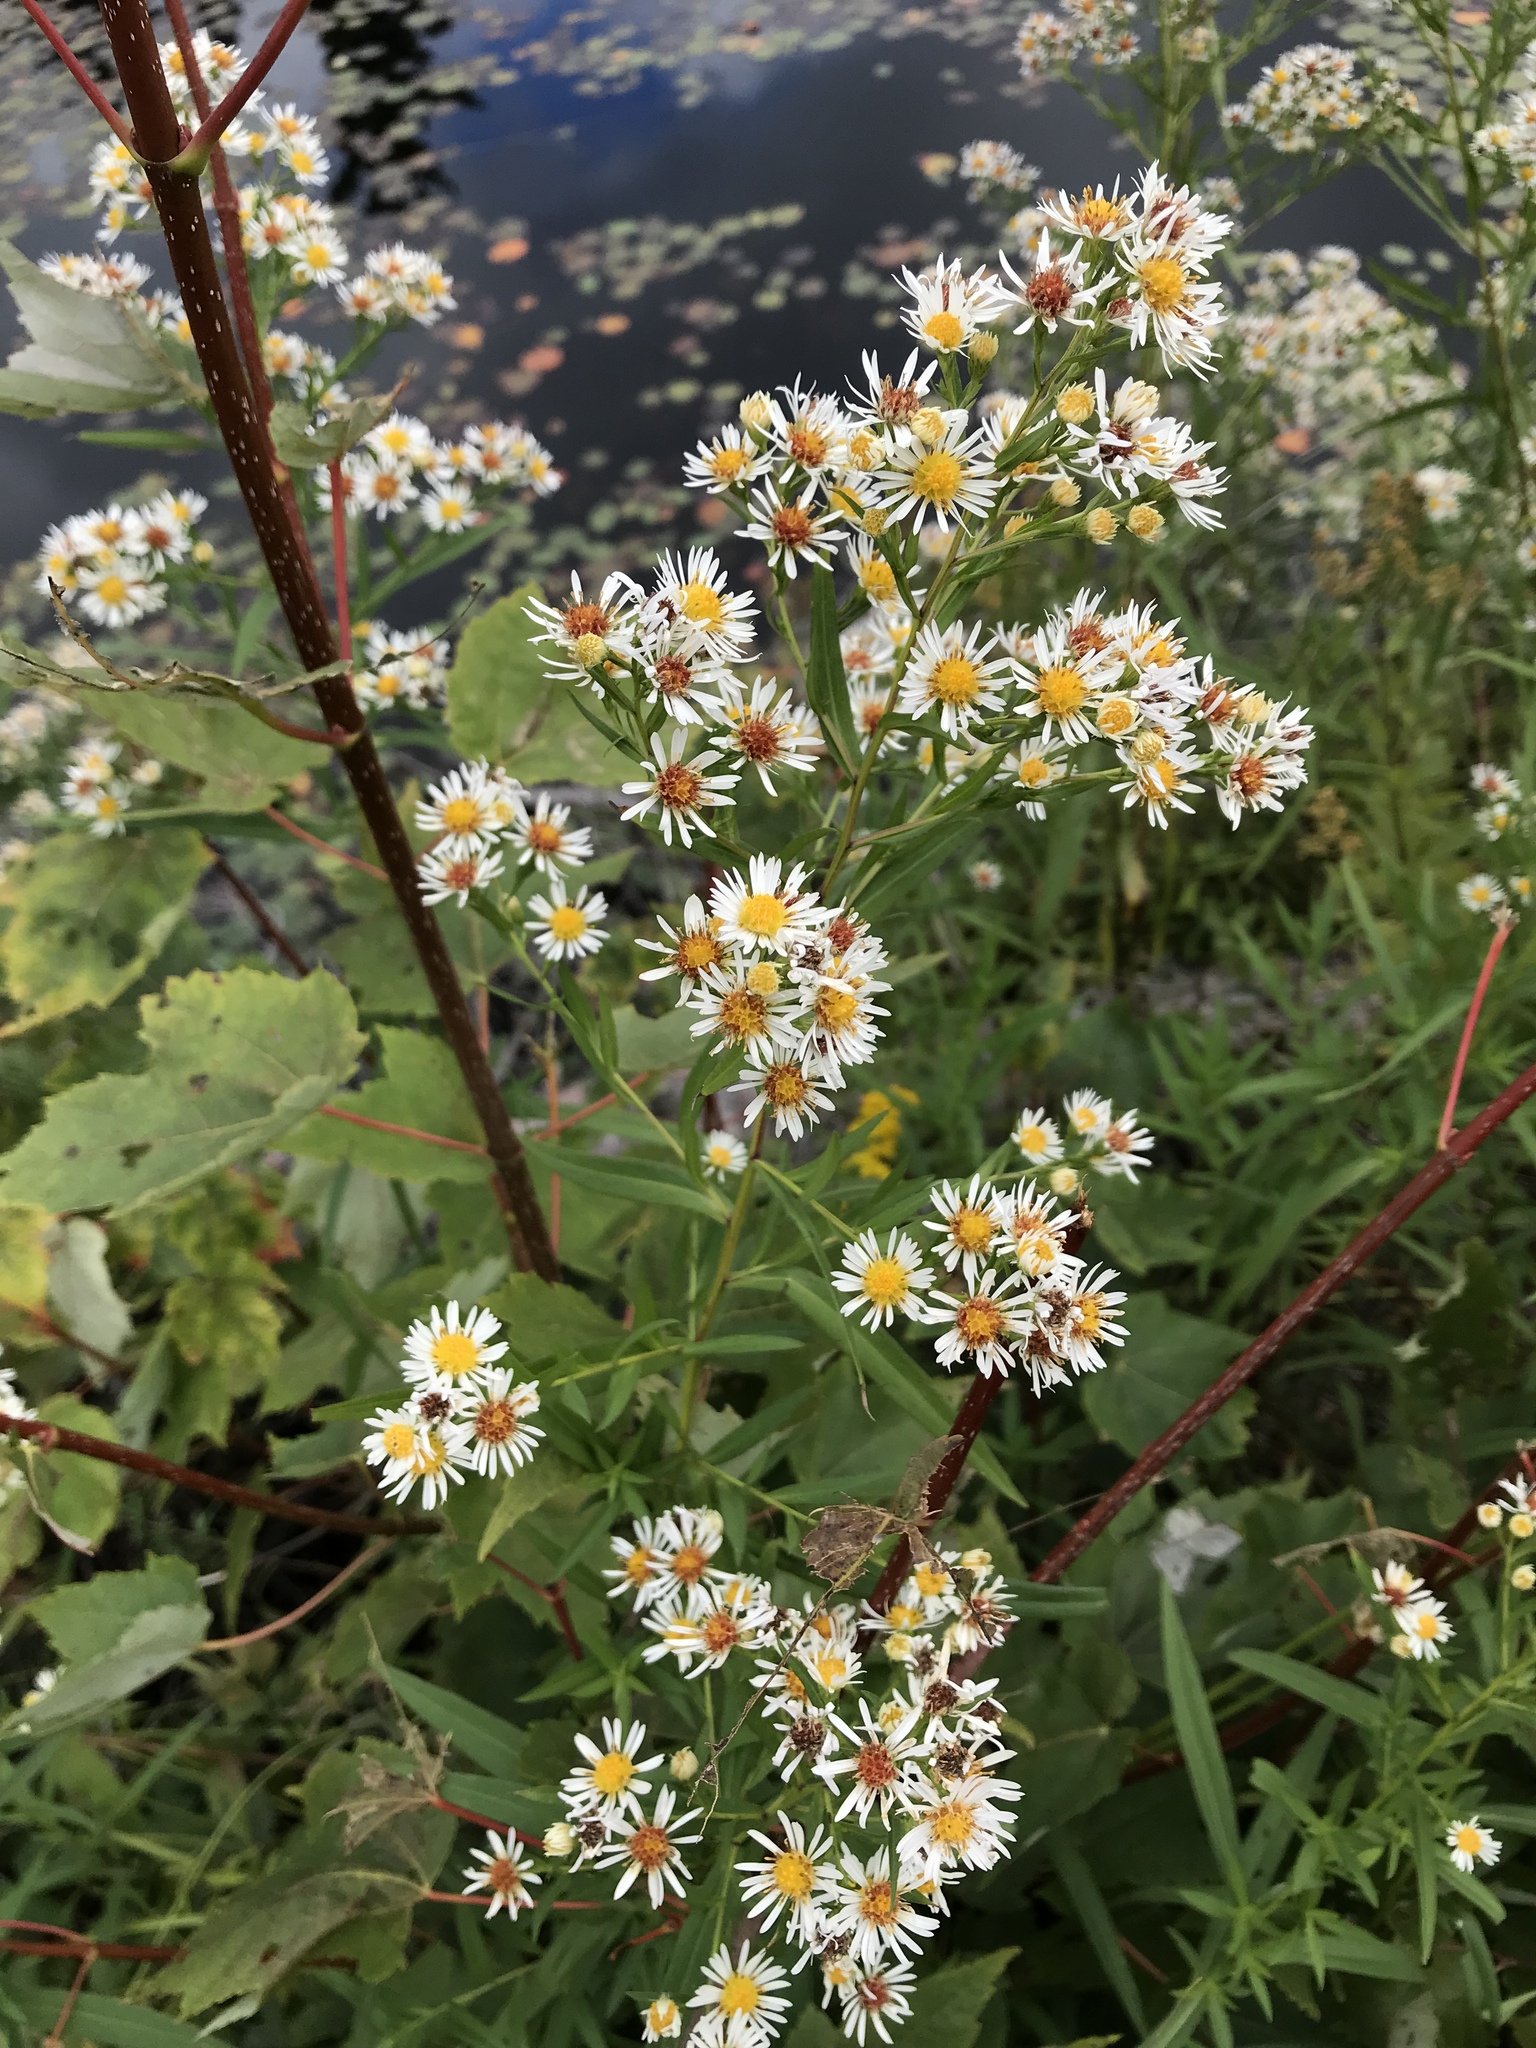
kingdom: Plantae
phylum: Tracheophyta
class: Magnoliopsida
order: Asterales
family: Asteraceae
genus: Symphyotrichum
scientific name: Symphyotrichum lanceolatum
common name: Panicled aster
